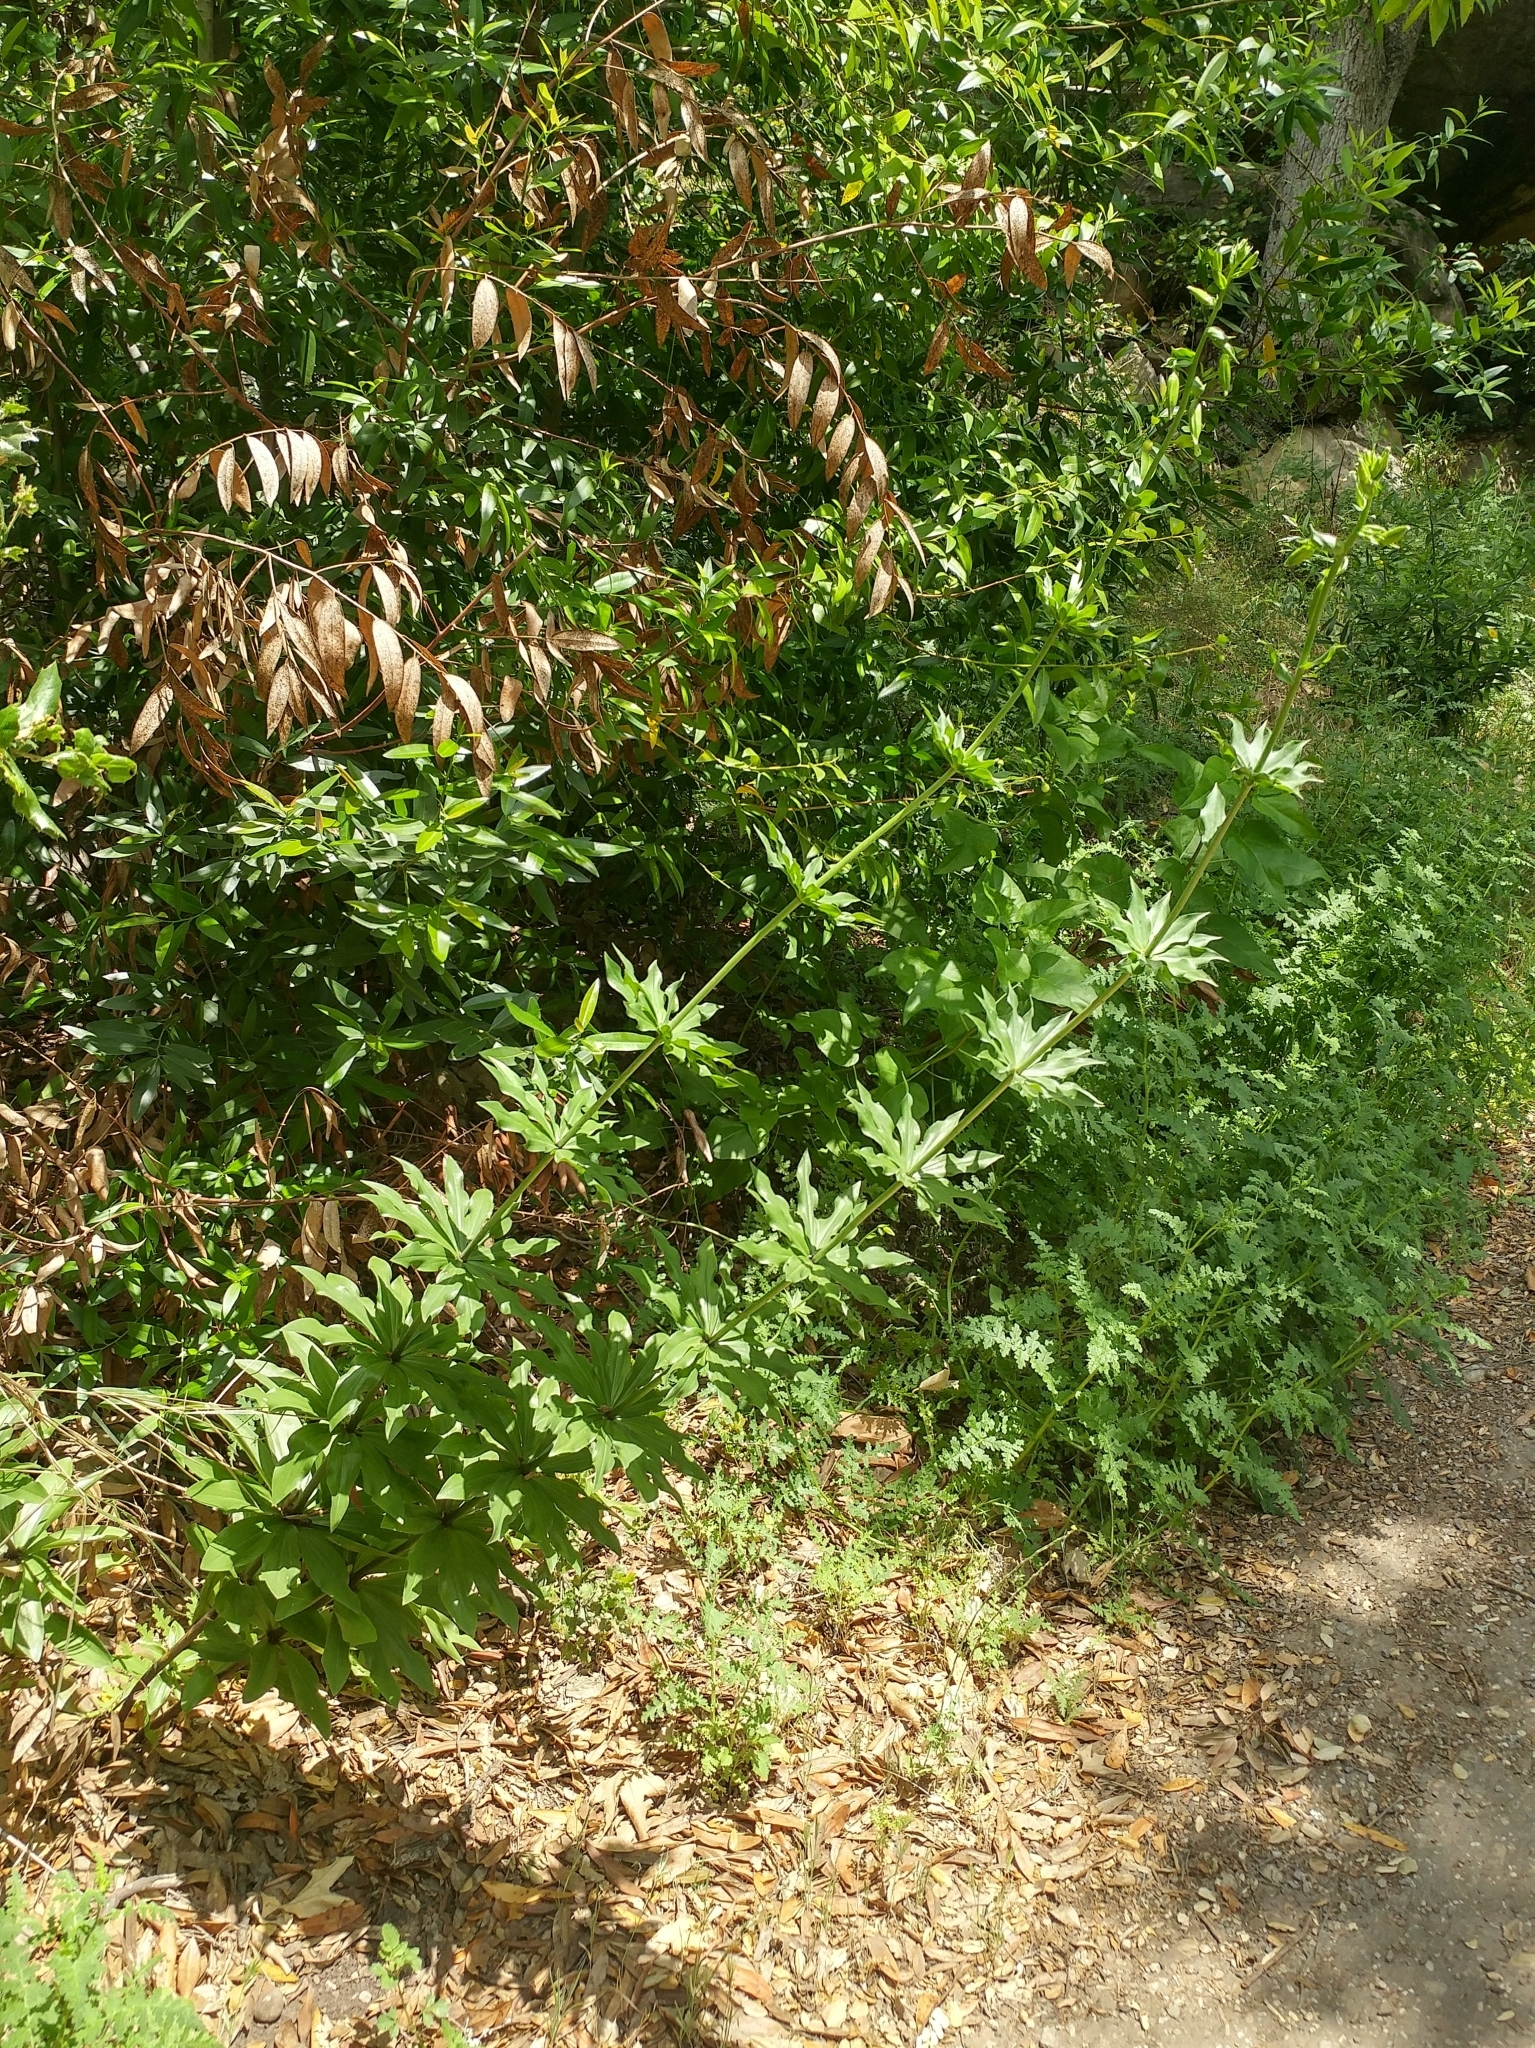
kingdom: Plantae
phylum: Tracheophyta
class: Liliopsida
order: Liliales
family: Liliaceae
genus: Lilium
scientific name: Lilium humboldtii
